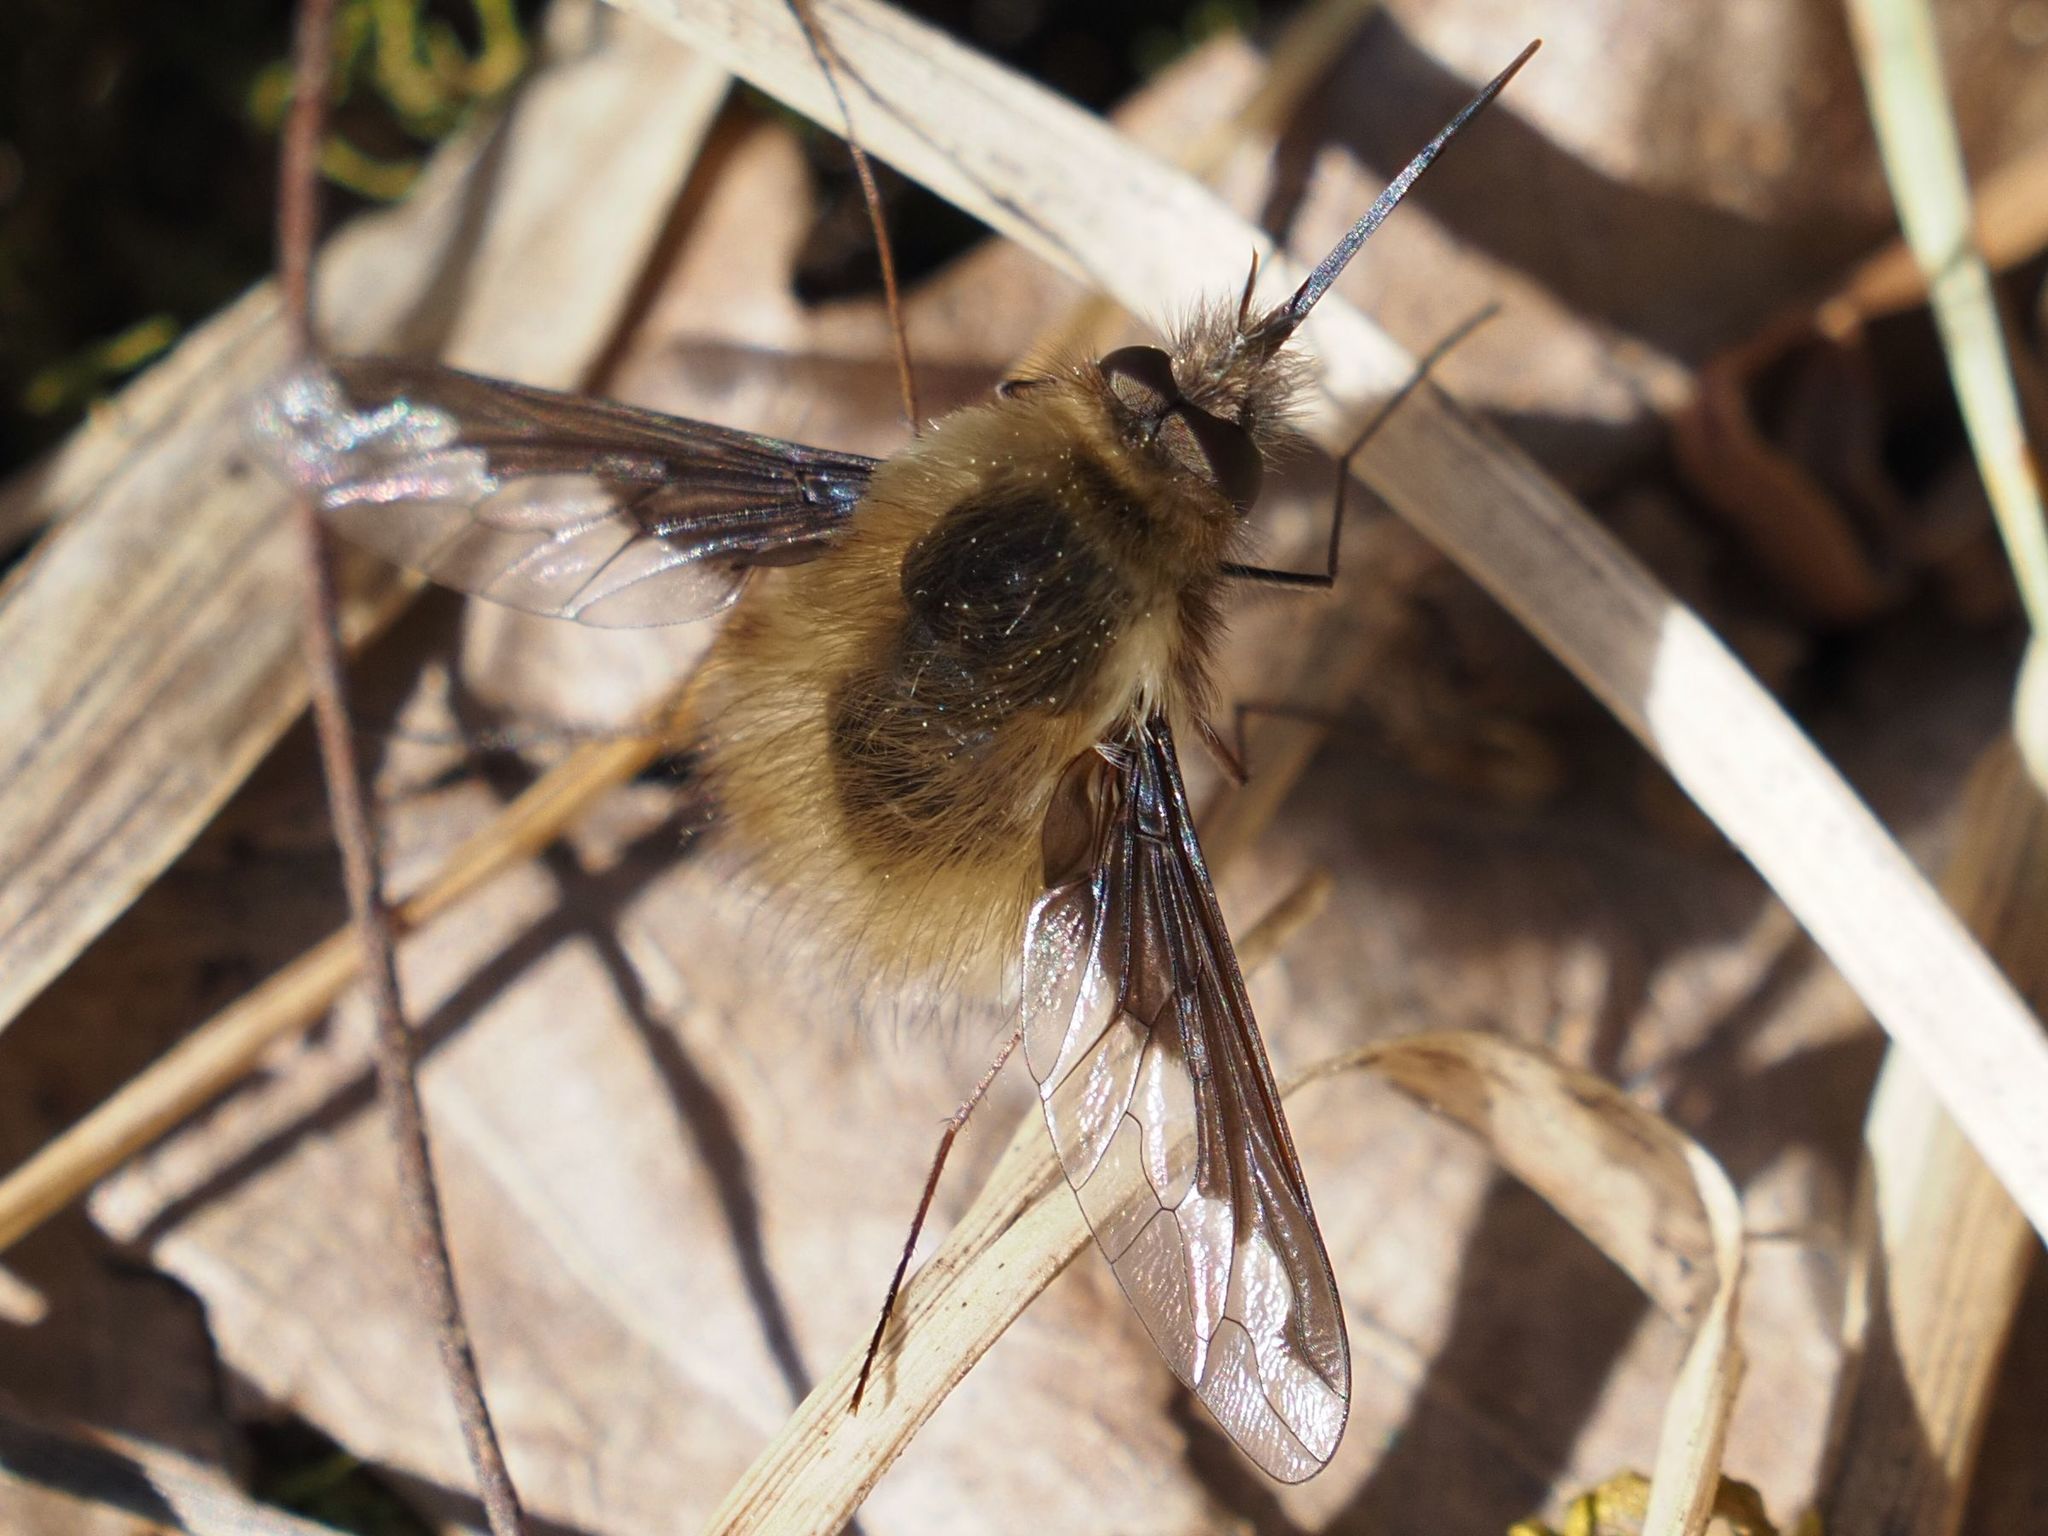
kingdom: Animalia
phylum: Arthropoda
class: Insecta
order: Diptera
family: Bombyliidae
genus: Bombylius
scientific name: Bombylius major
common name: Bee fly
